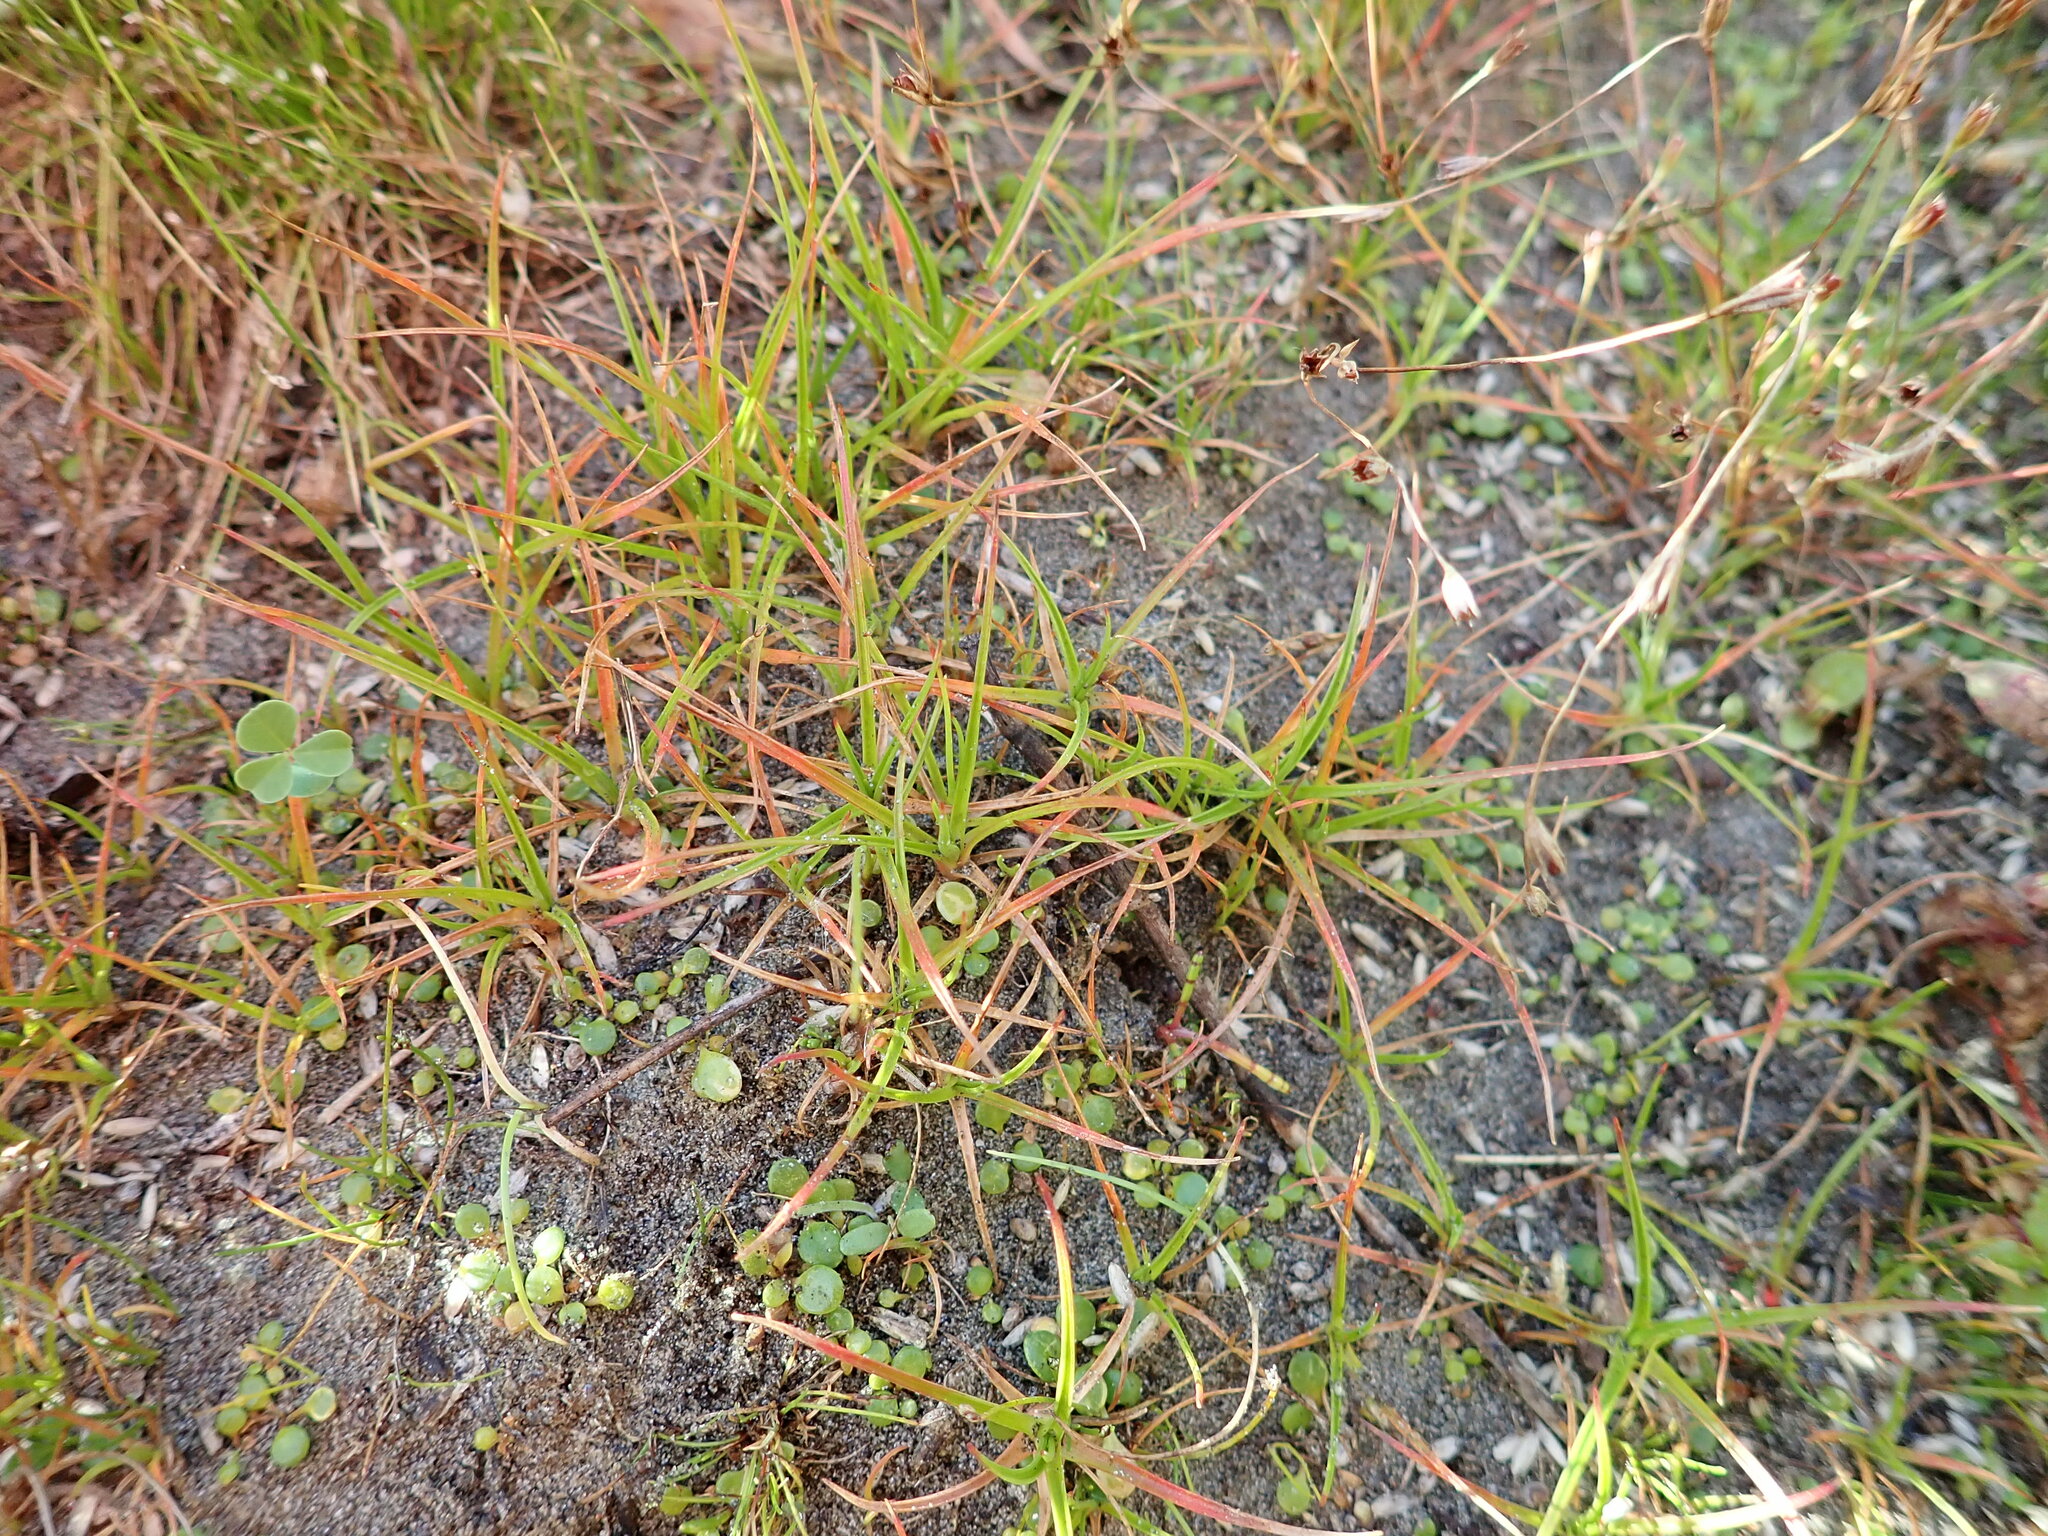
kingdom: Plantae
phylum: Tracheophyta
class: Liliopsida
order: Poales
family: Juncaceae
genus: Juncus
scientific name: Juncus caespiticius
